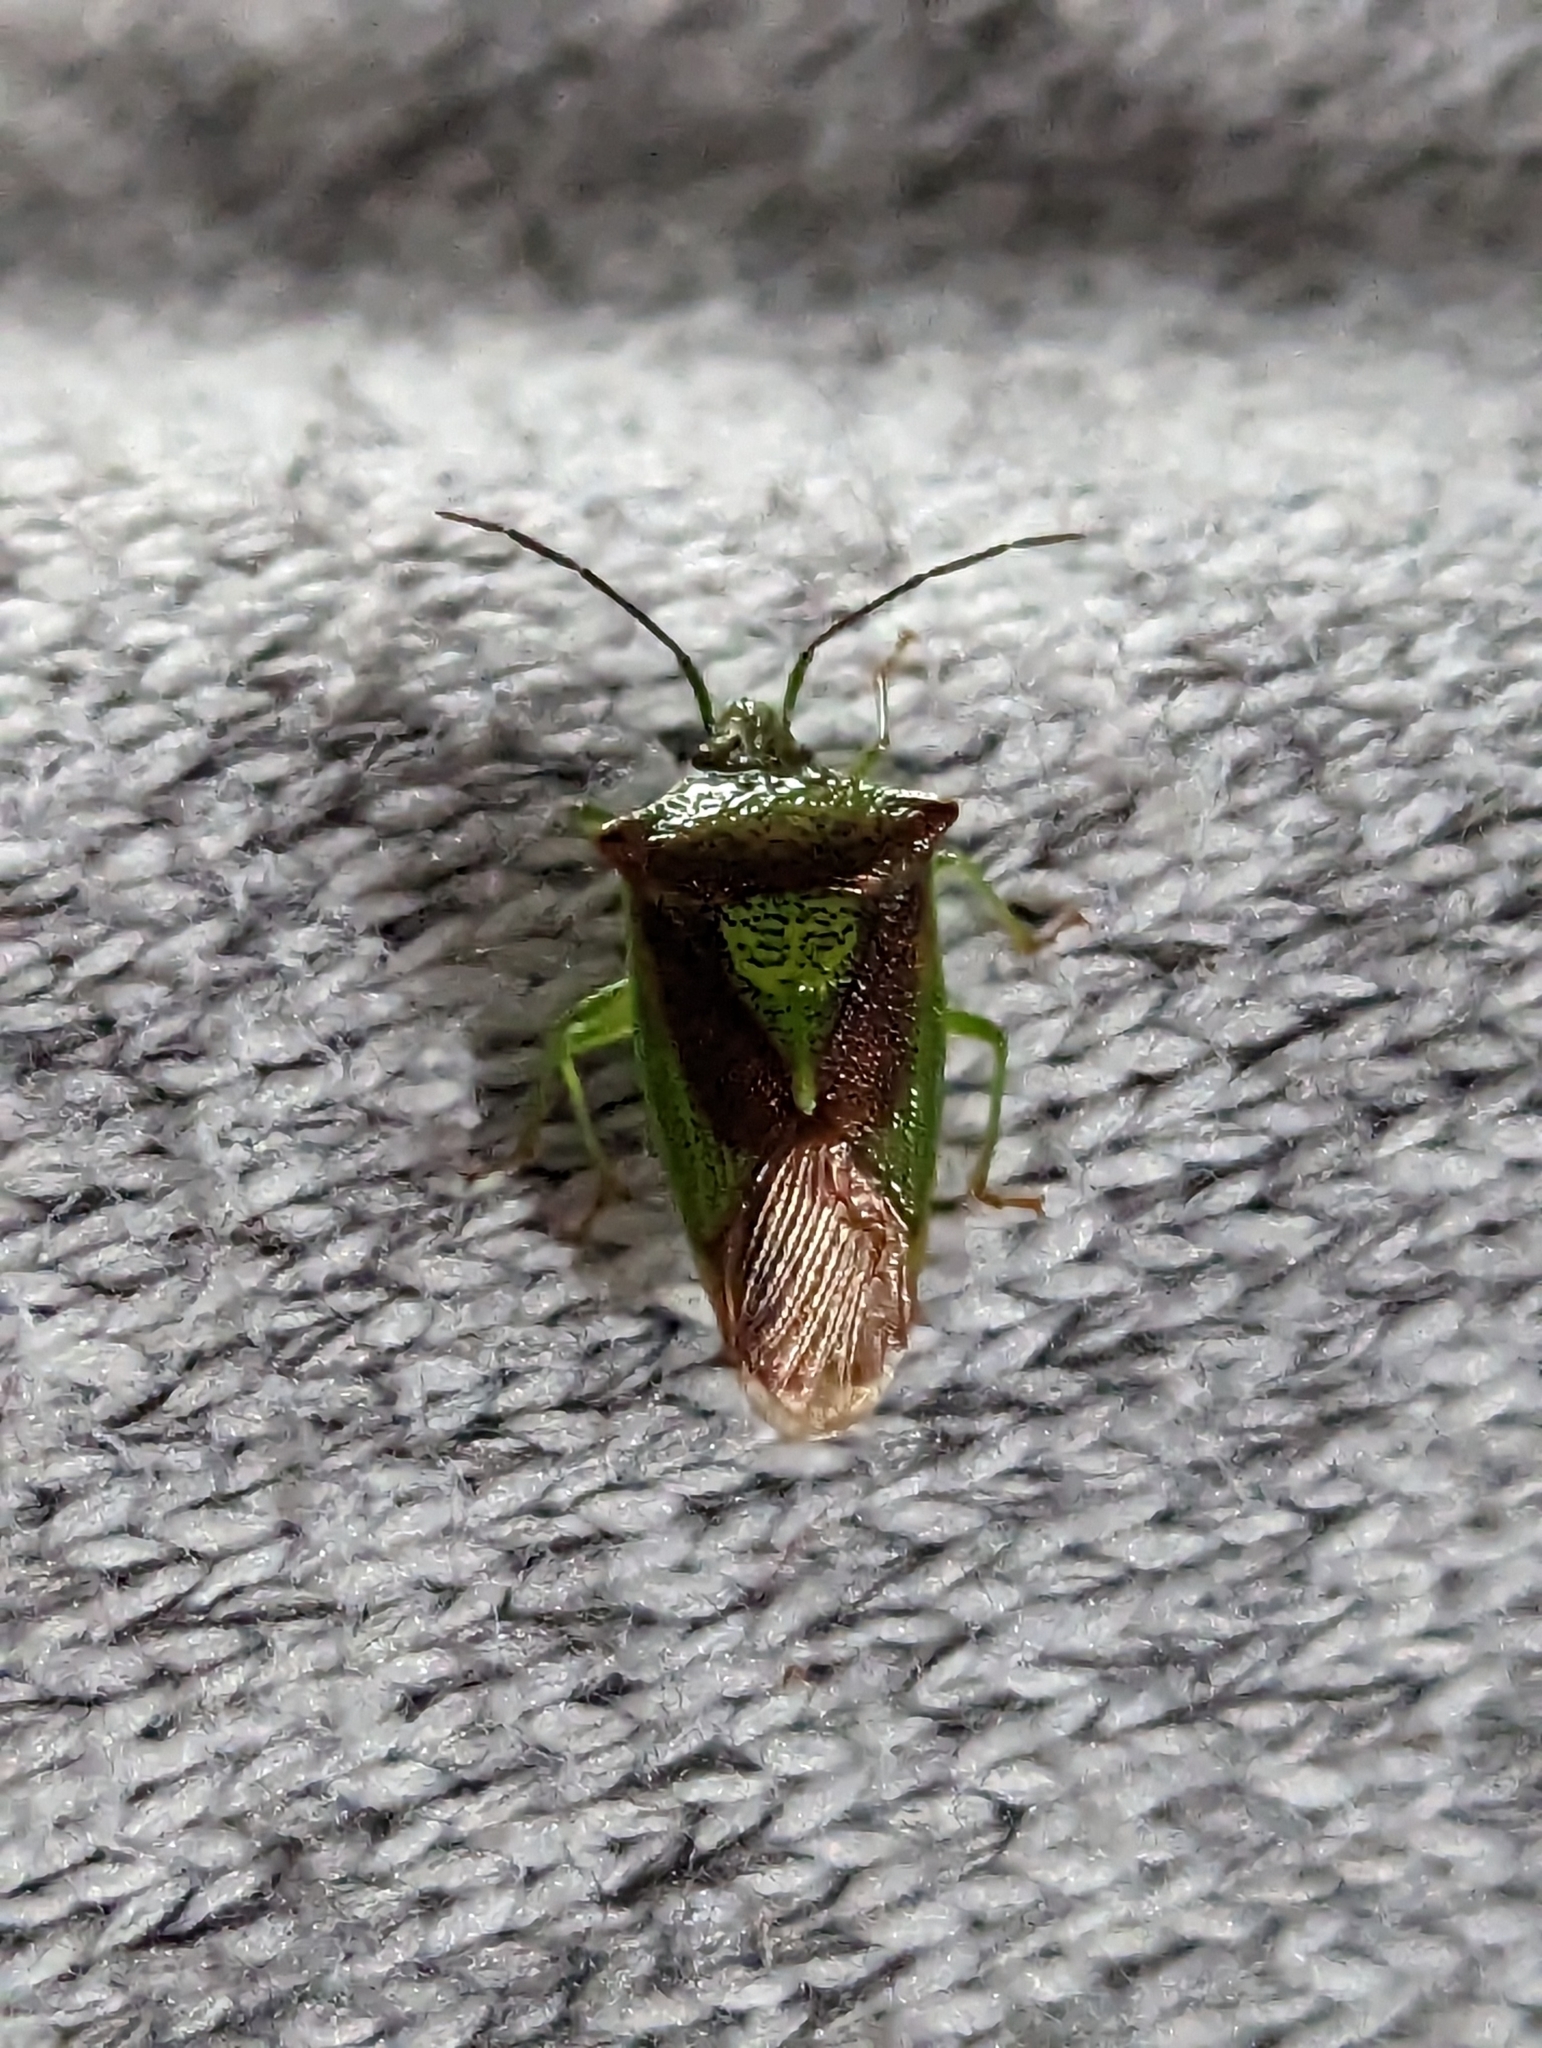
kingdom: Animalia
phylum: Arthropoda
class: Insecta
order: Hemiptera
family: Acanthosomatidae
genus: Acanthosoma
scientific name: Acanthosoma haemorrhoidale
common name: Hawthorn shieldbug
